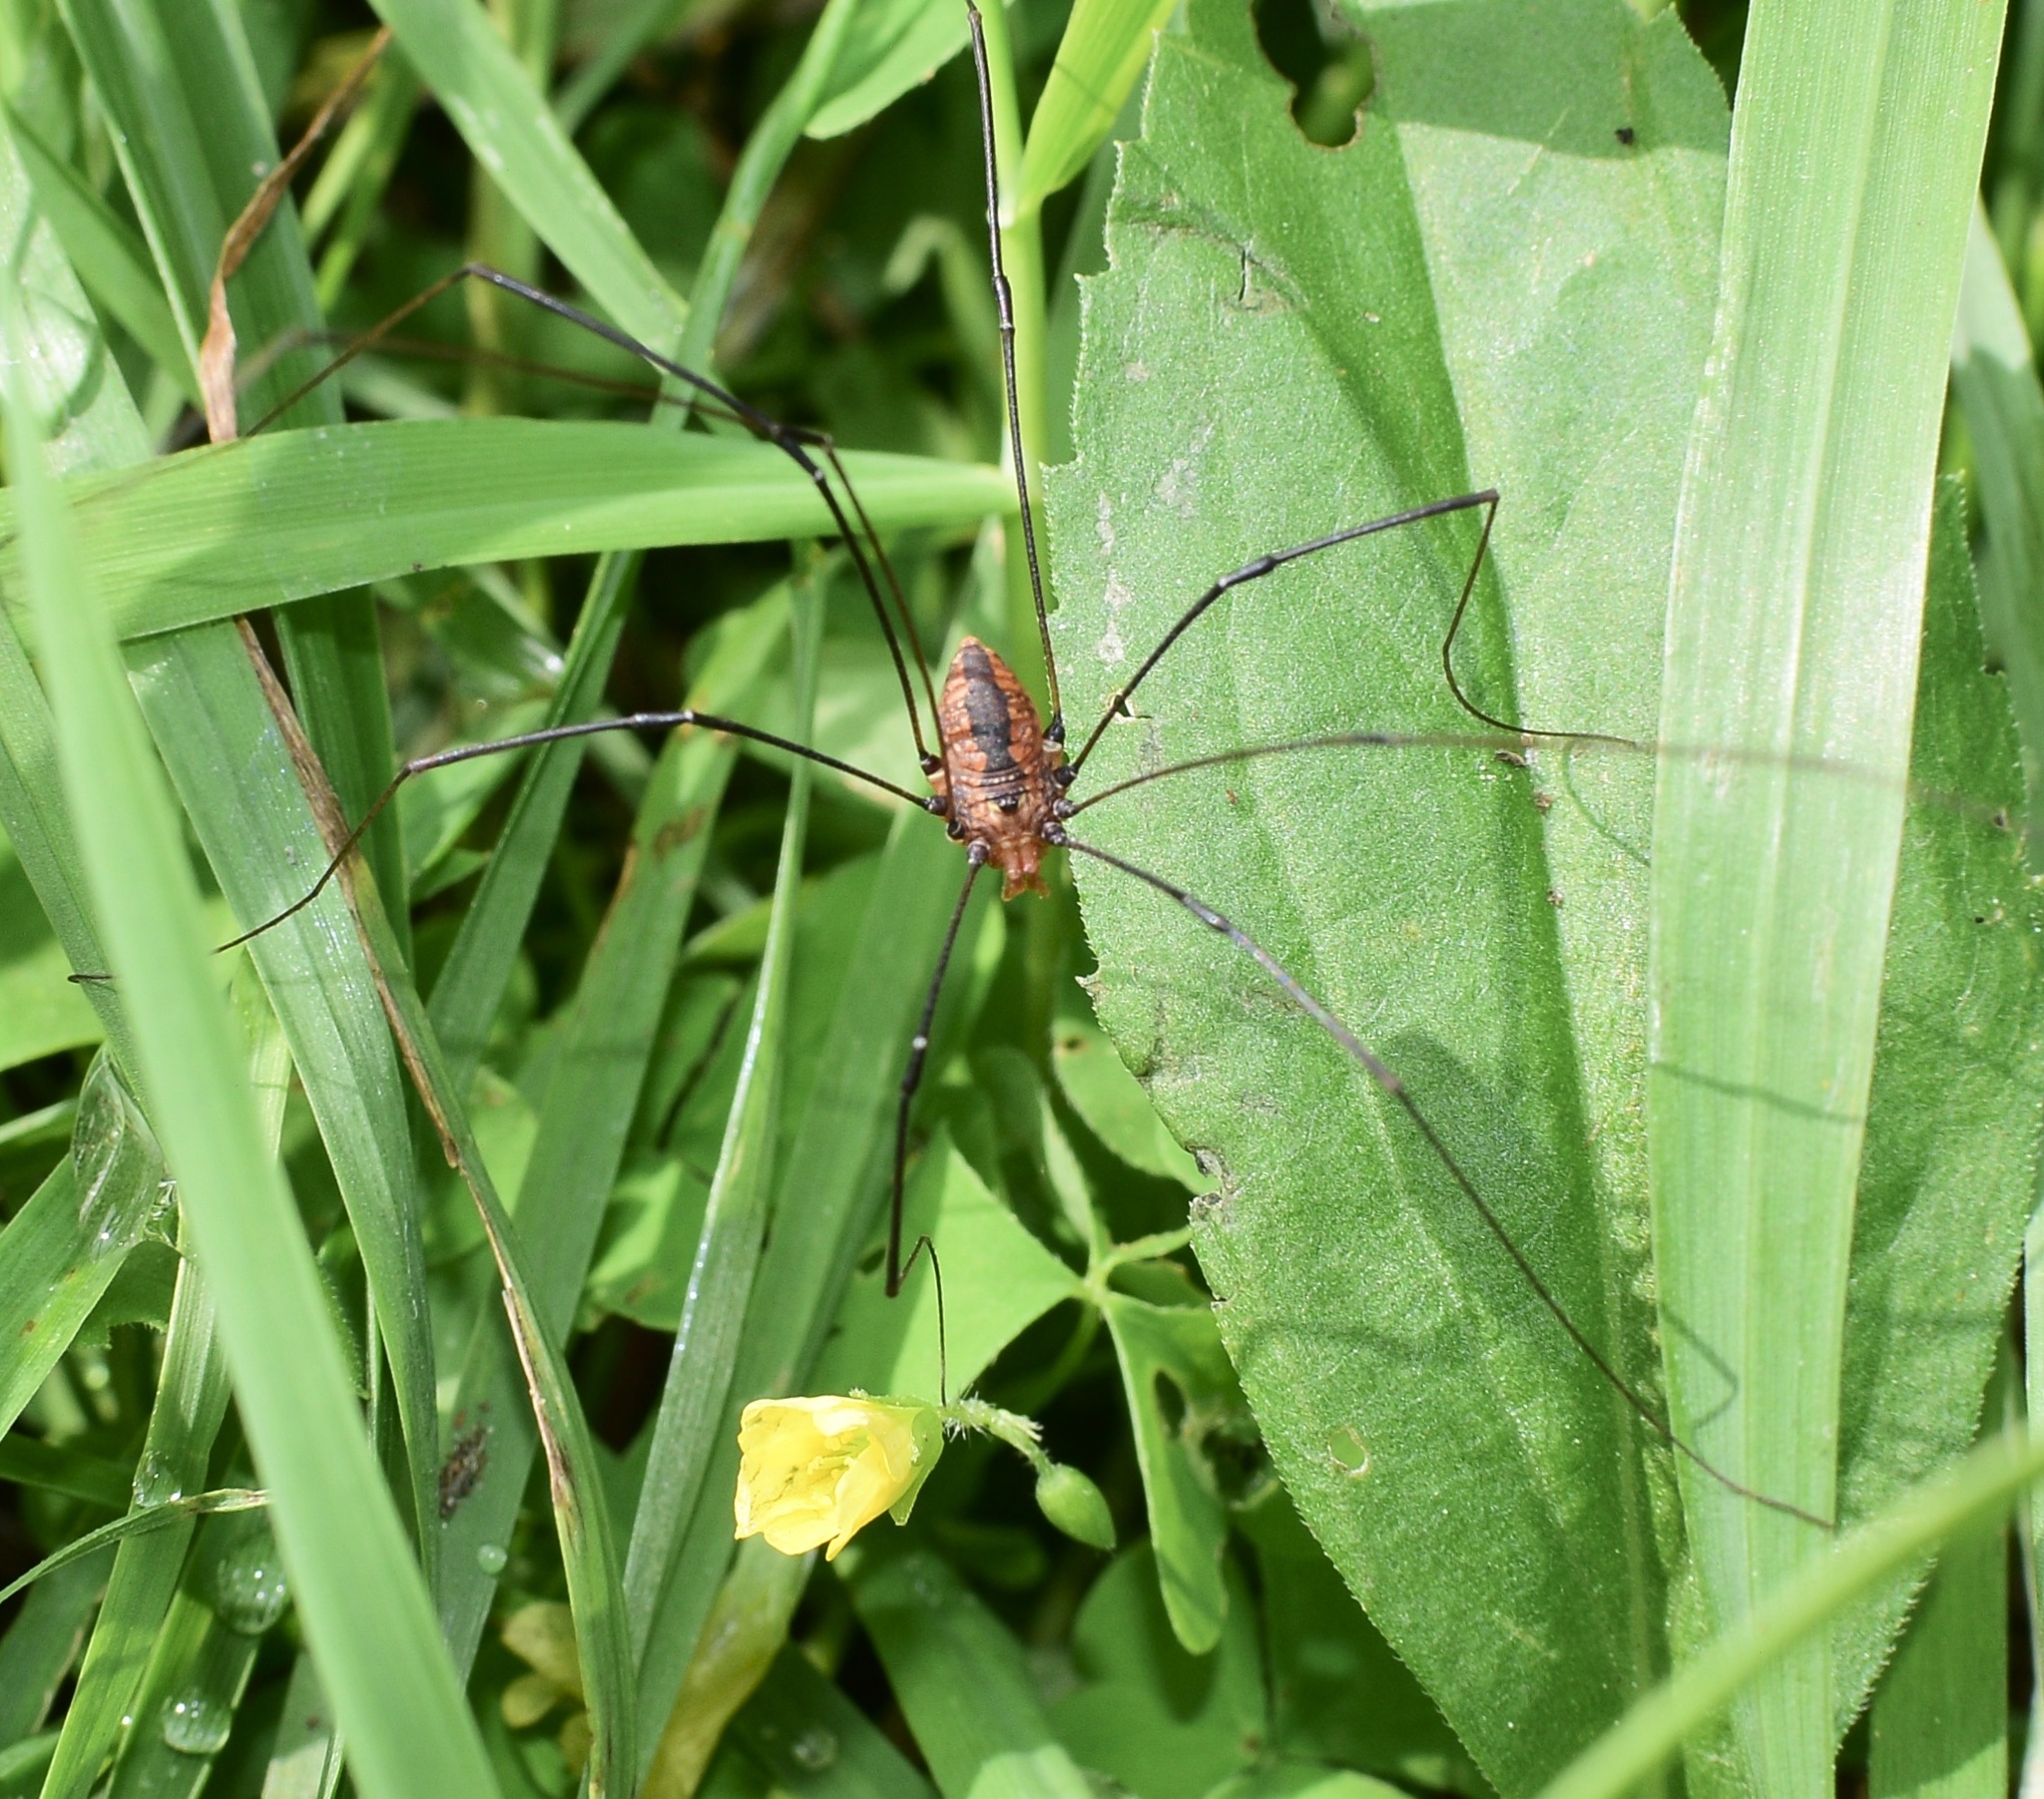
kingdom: Animalia
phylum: Arthropoda
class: Arachnida
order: Opiliones
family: Sclerosomatidae
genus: Leiobunum
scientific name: Leiobunum vittatum
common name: Eastern harvestman
